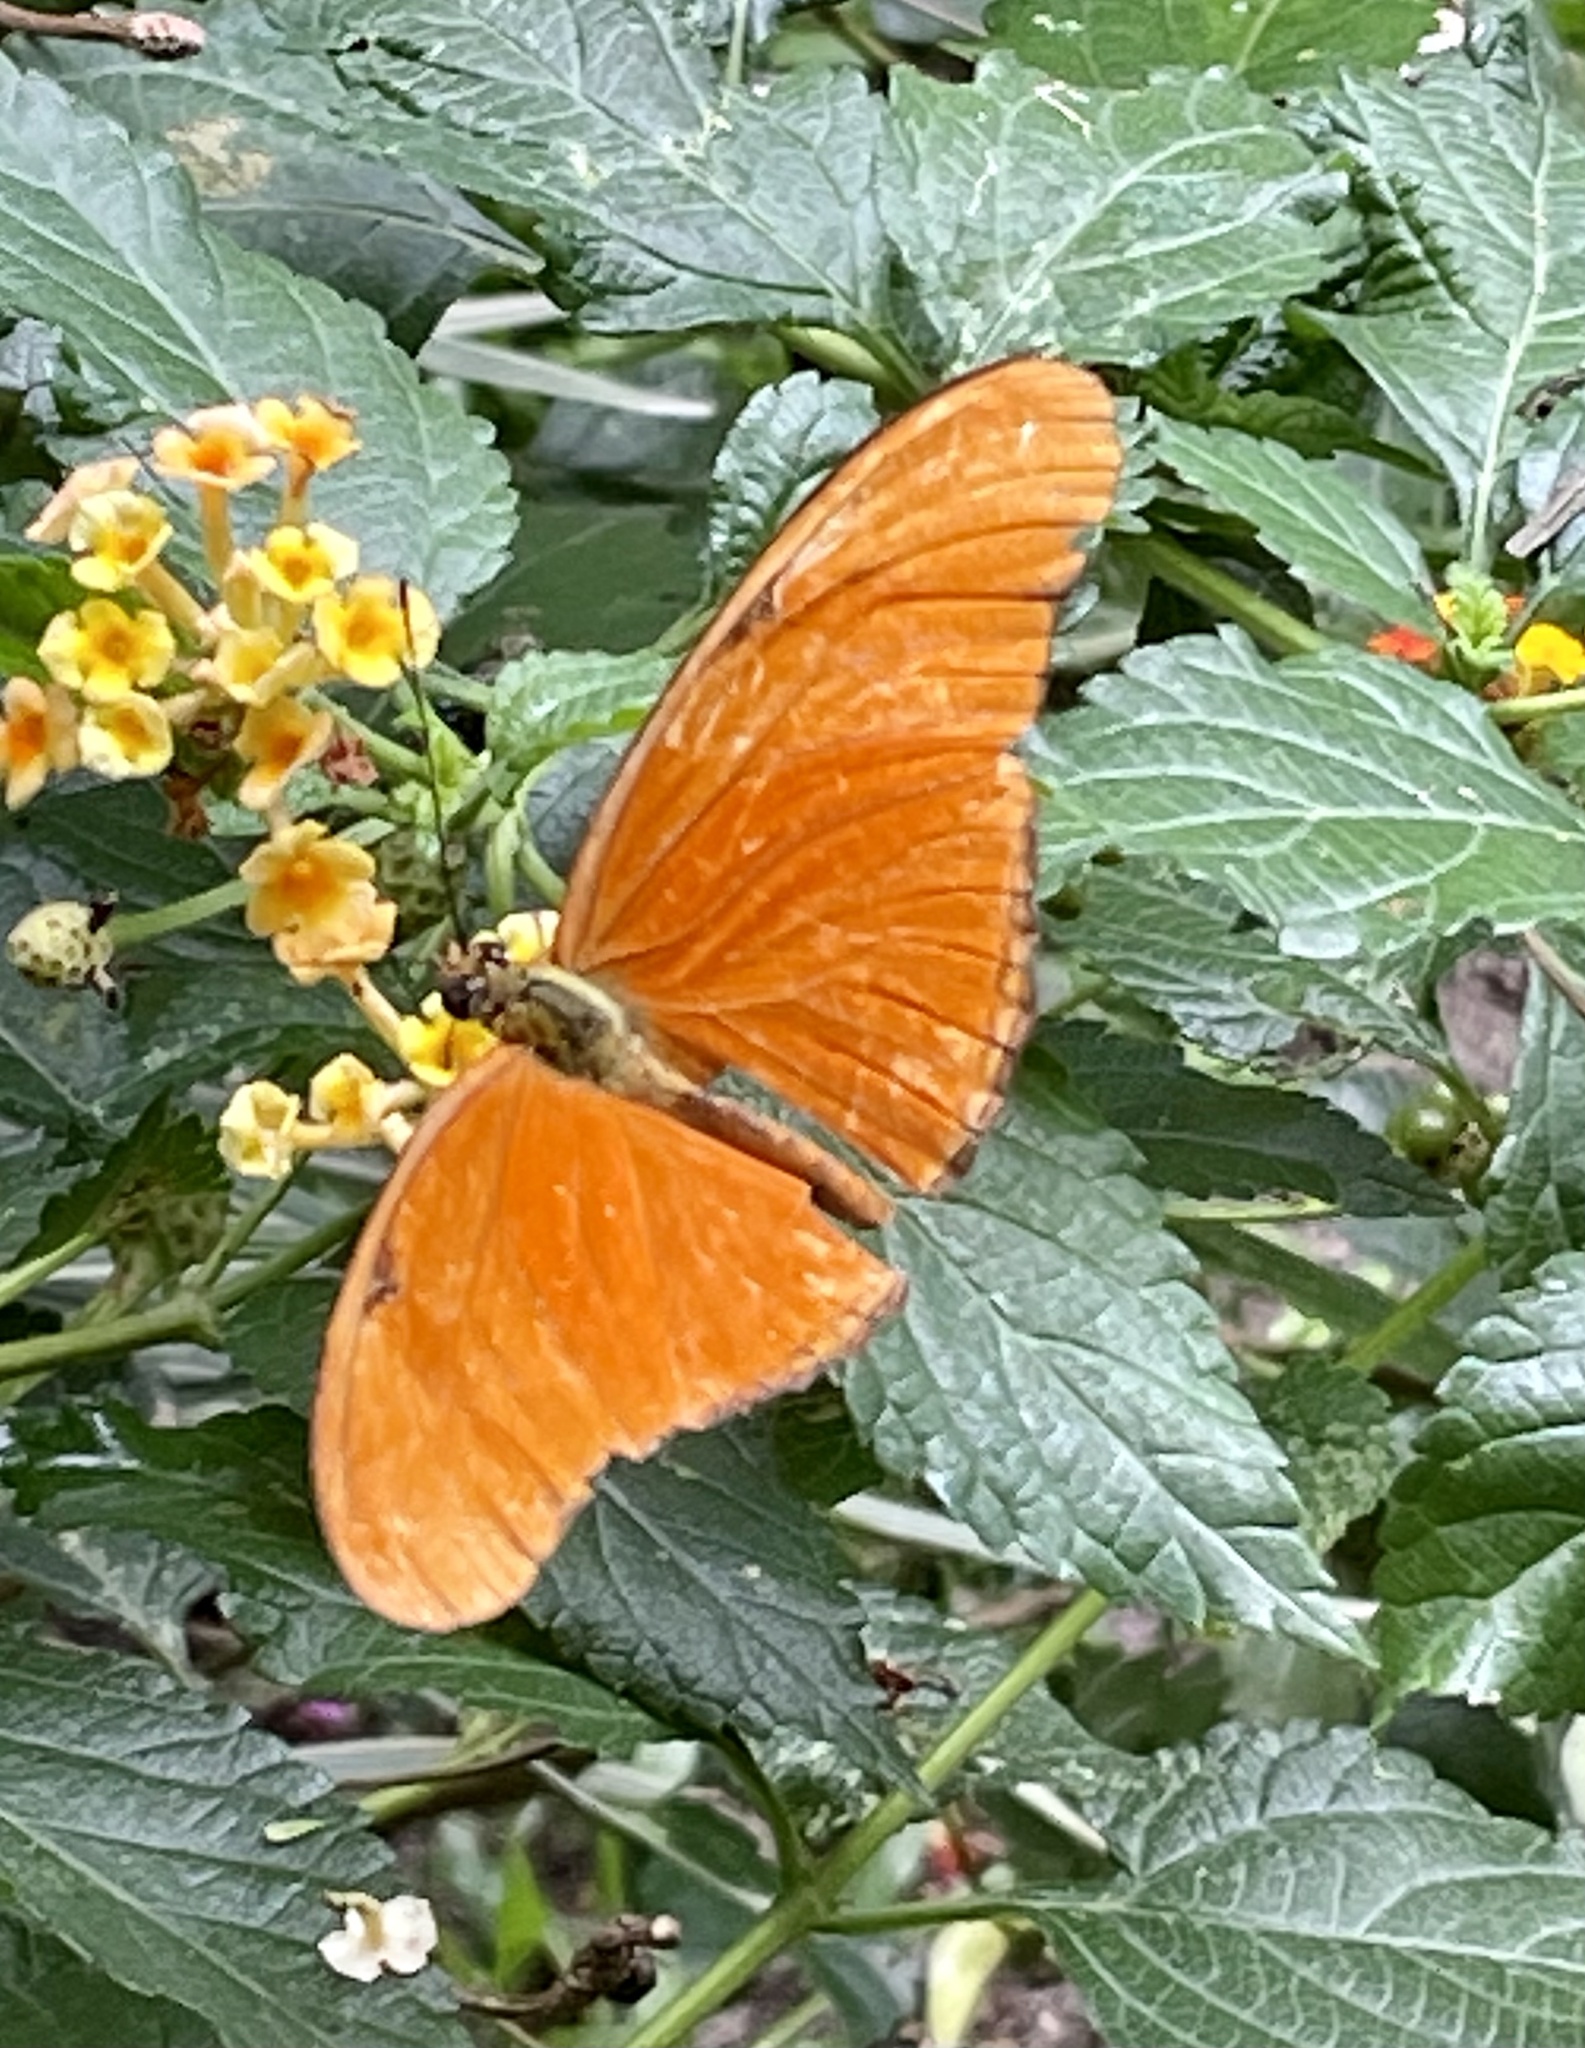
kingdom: Animalia
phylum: Arthropoda
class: Insecta
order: Lepidoptera
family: Nymphalidae
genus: Dryas
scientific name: Dryas iulia
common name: Flambeau
